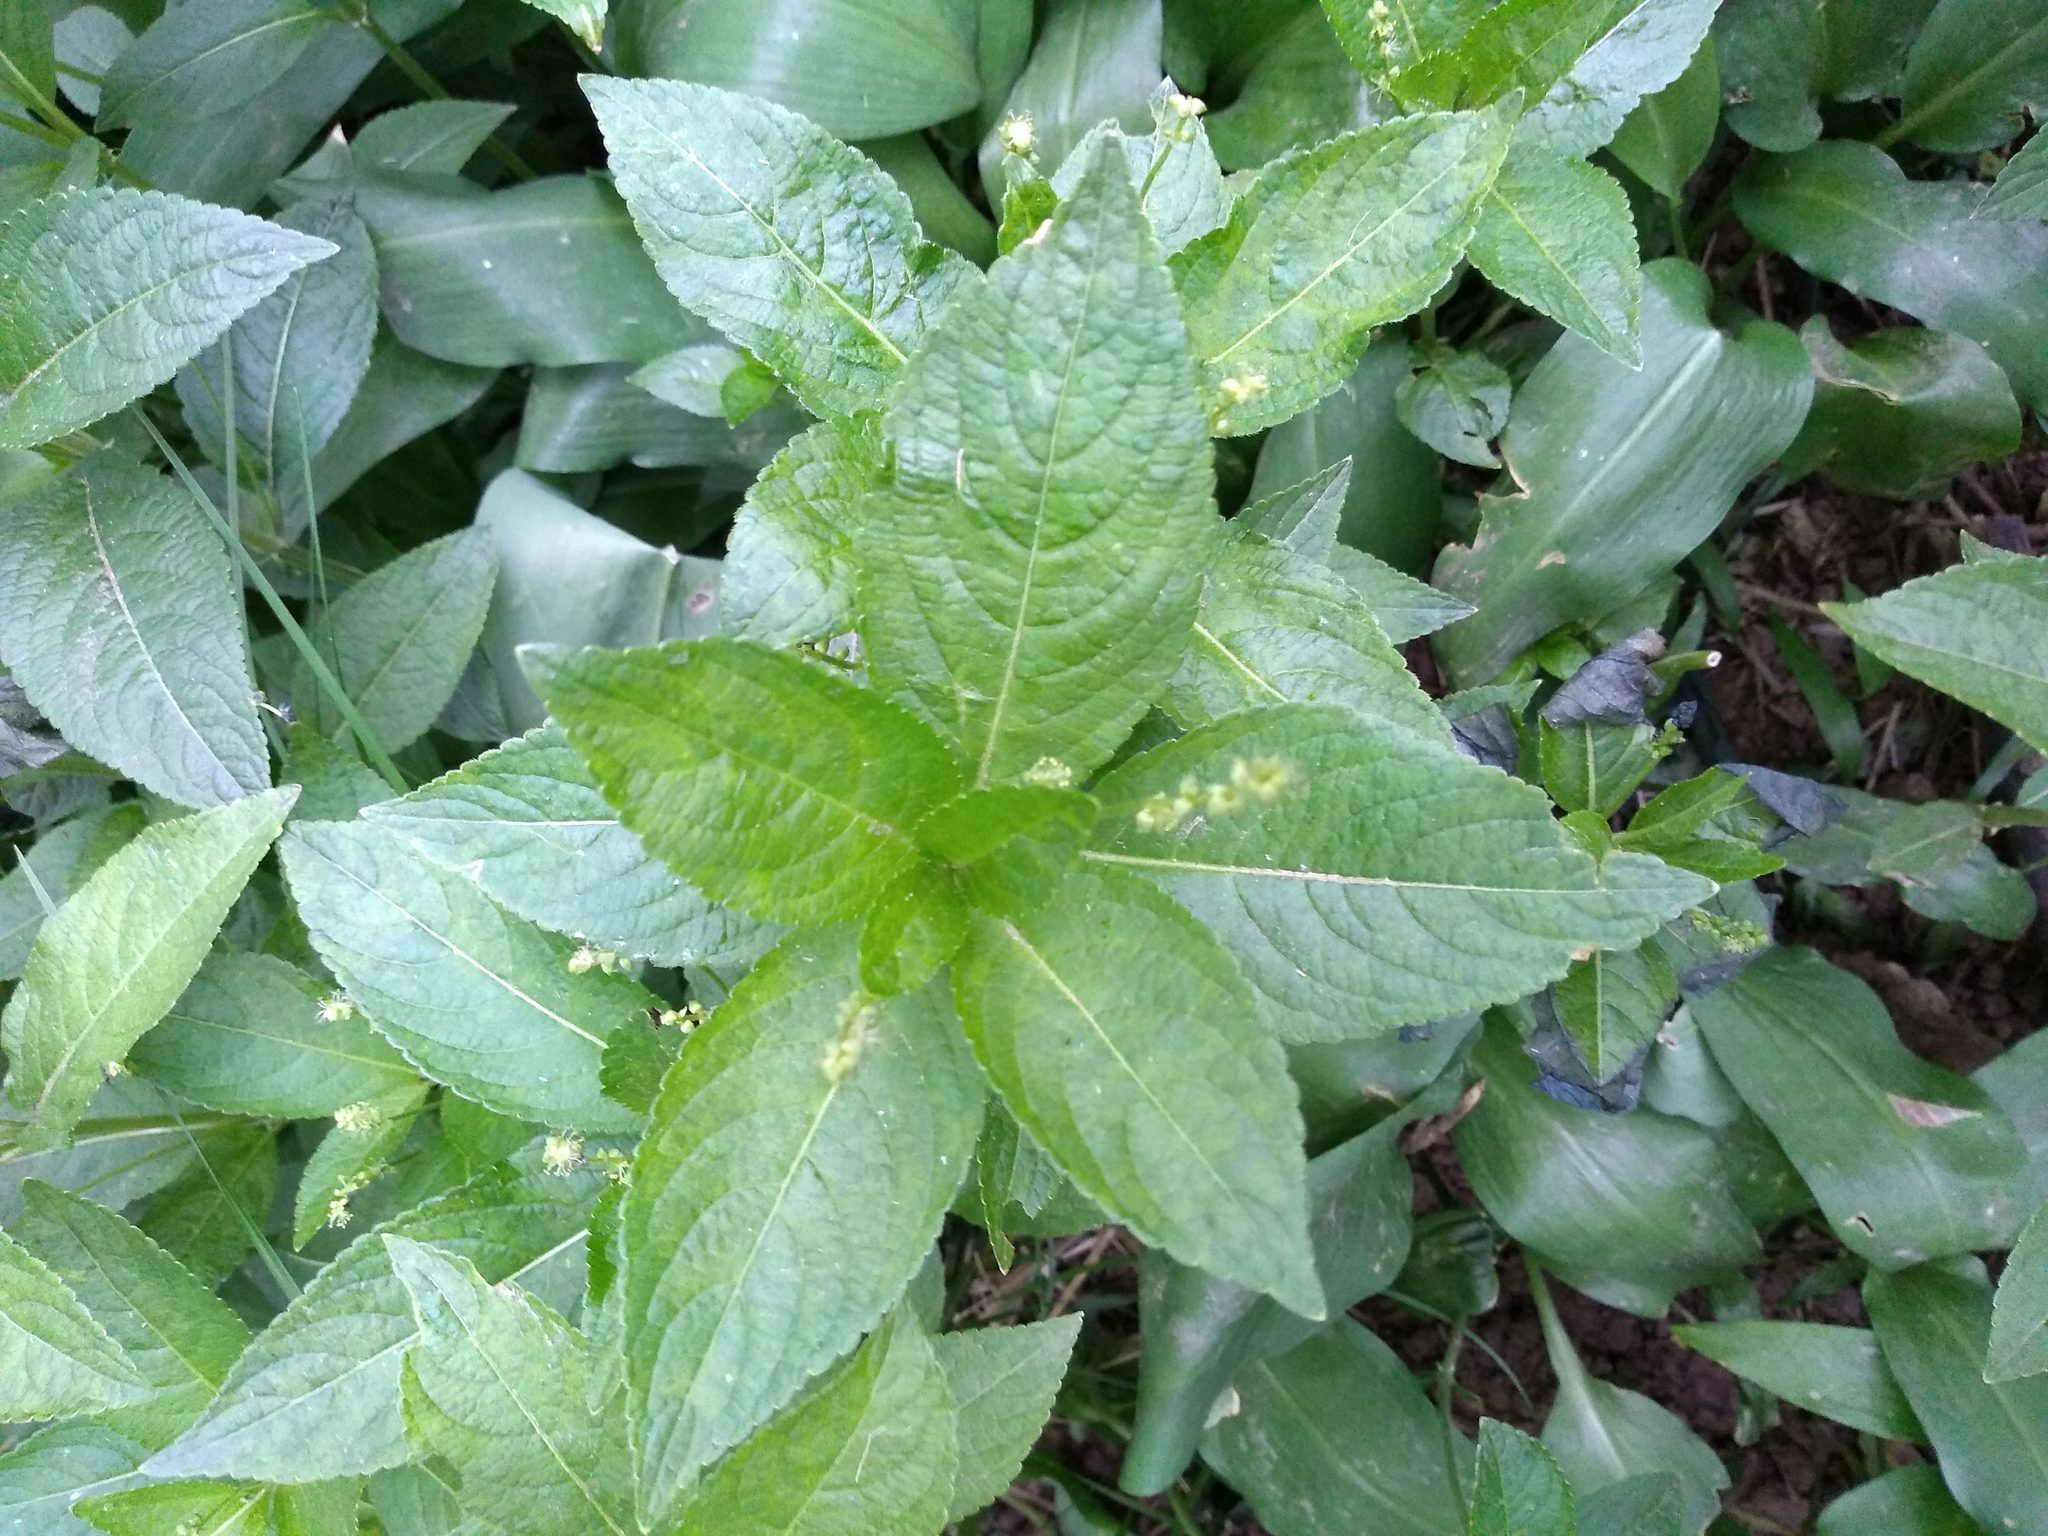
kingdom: Plantae
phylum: Tracheophyta
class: Magnoliopsida
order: Malpighiales
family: Euphorbiaceae
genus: Mercurialis
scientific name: Mercurialis perennis
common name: Dog mercury
